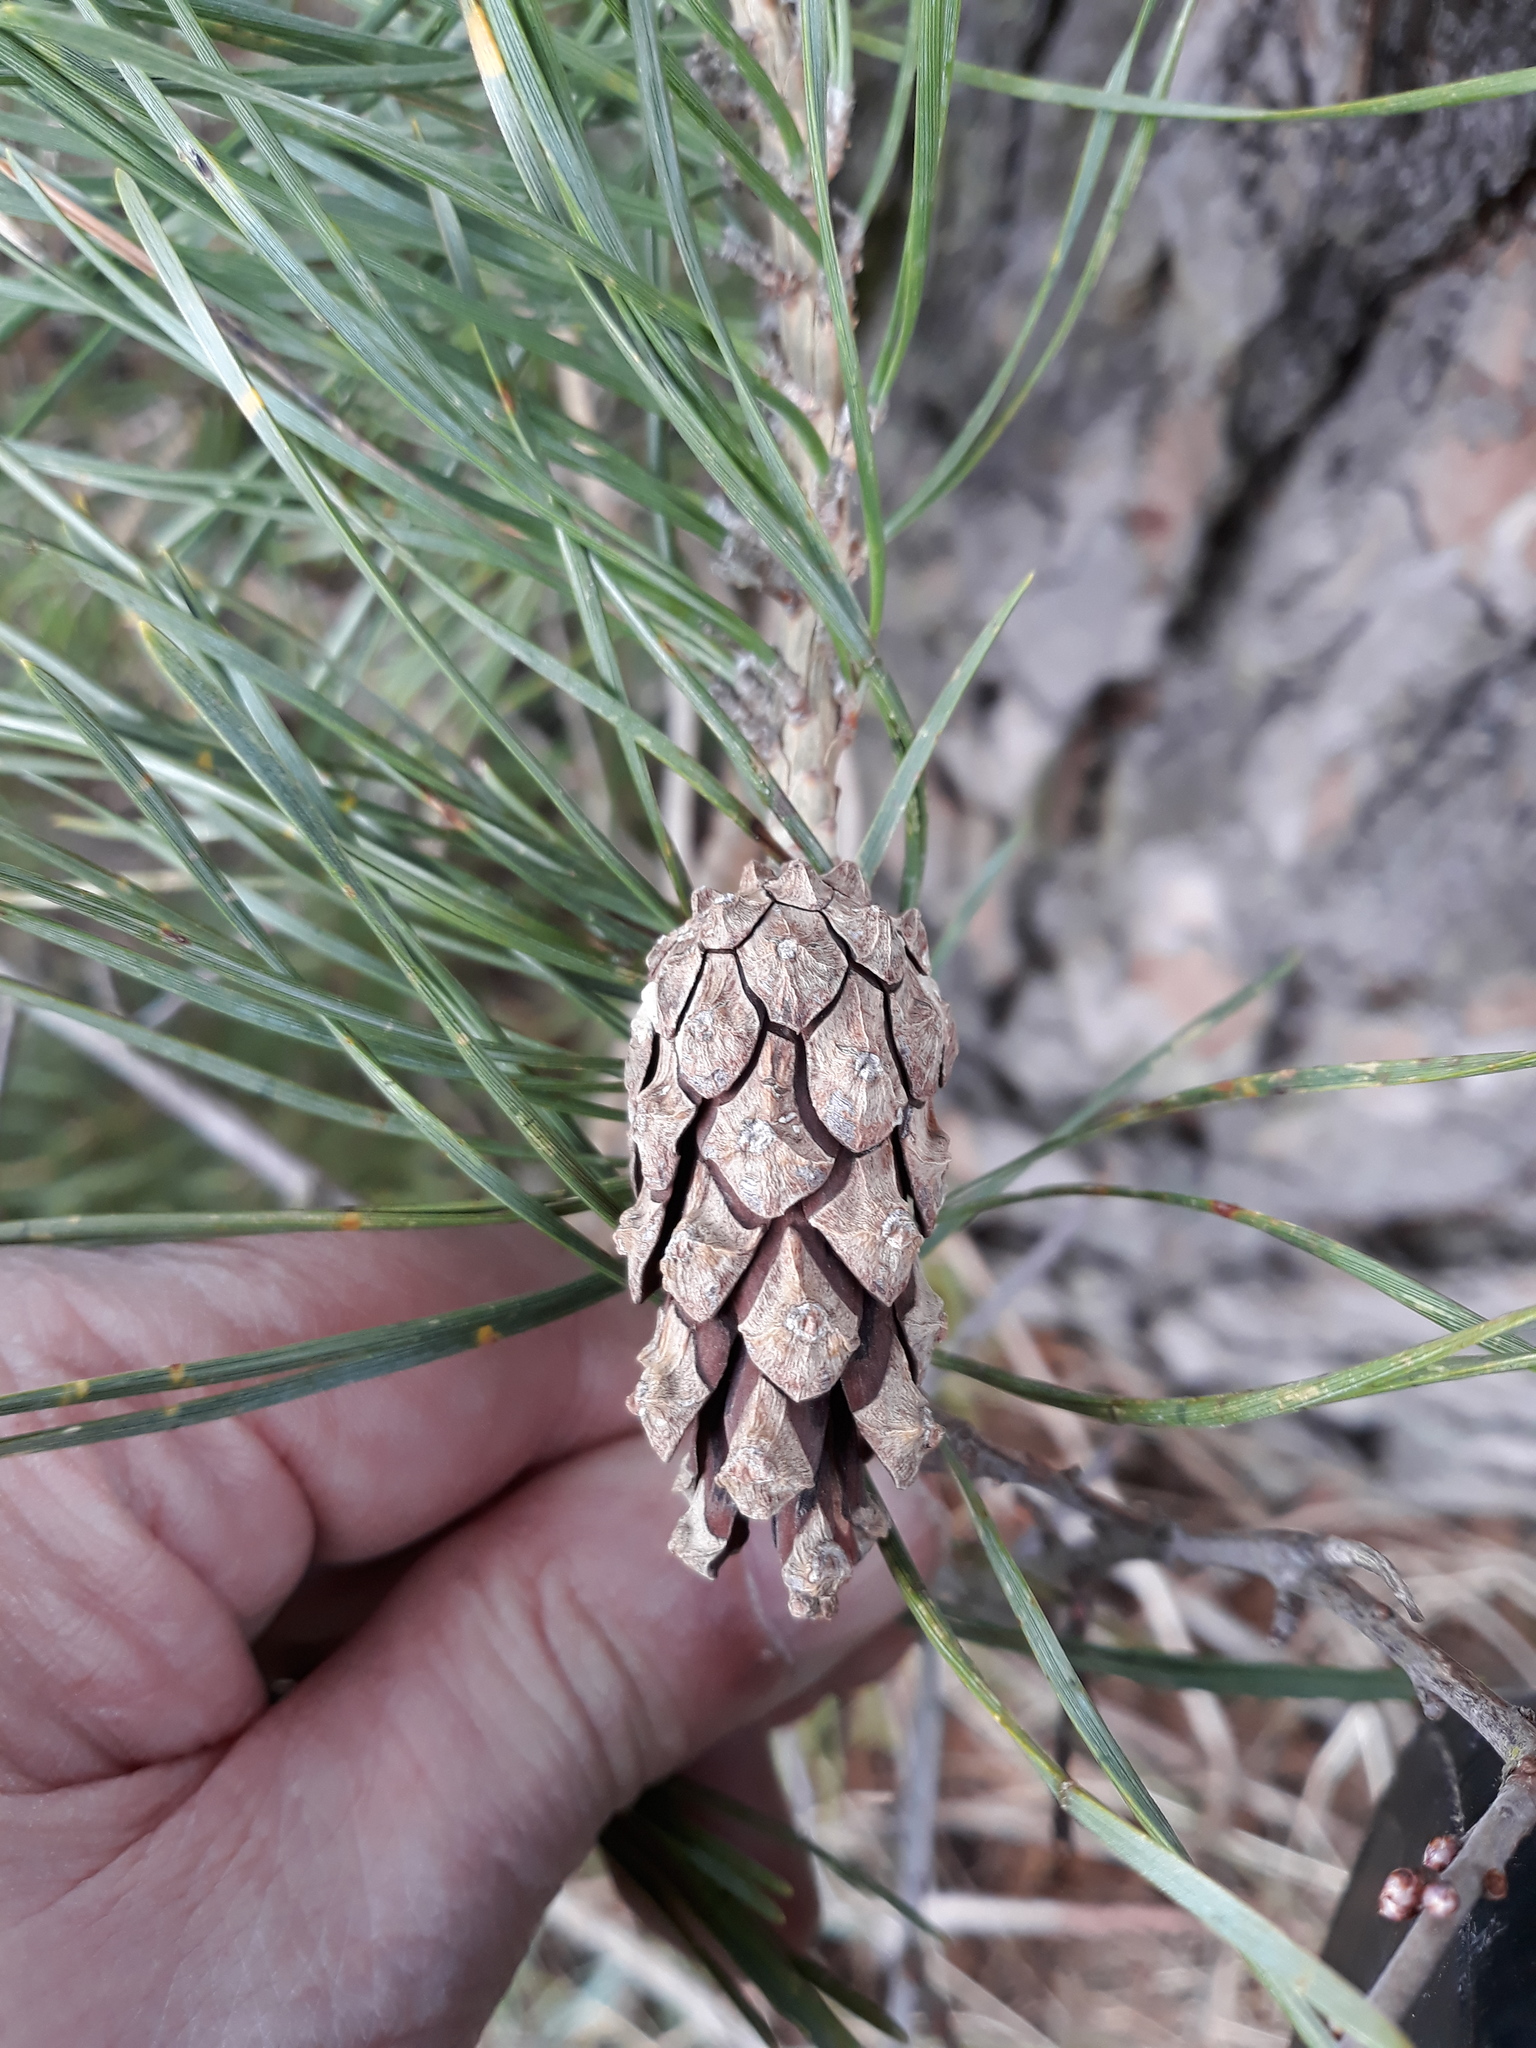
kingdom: Plantae
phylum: Tracheophyta
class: Pinopsida
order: Pinales
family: Pinaceae
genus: Pinus
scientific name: Pinus sylvestris
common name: Scots pine
